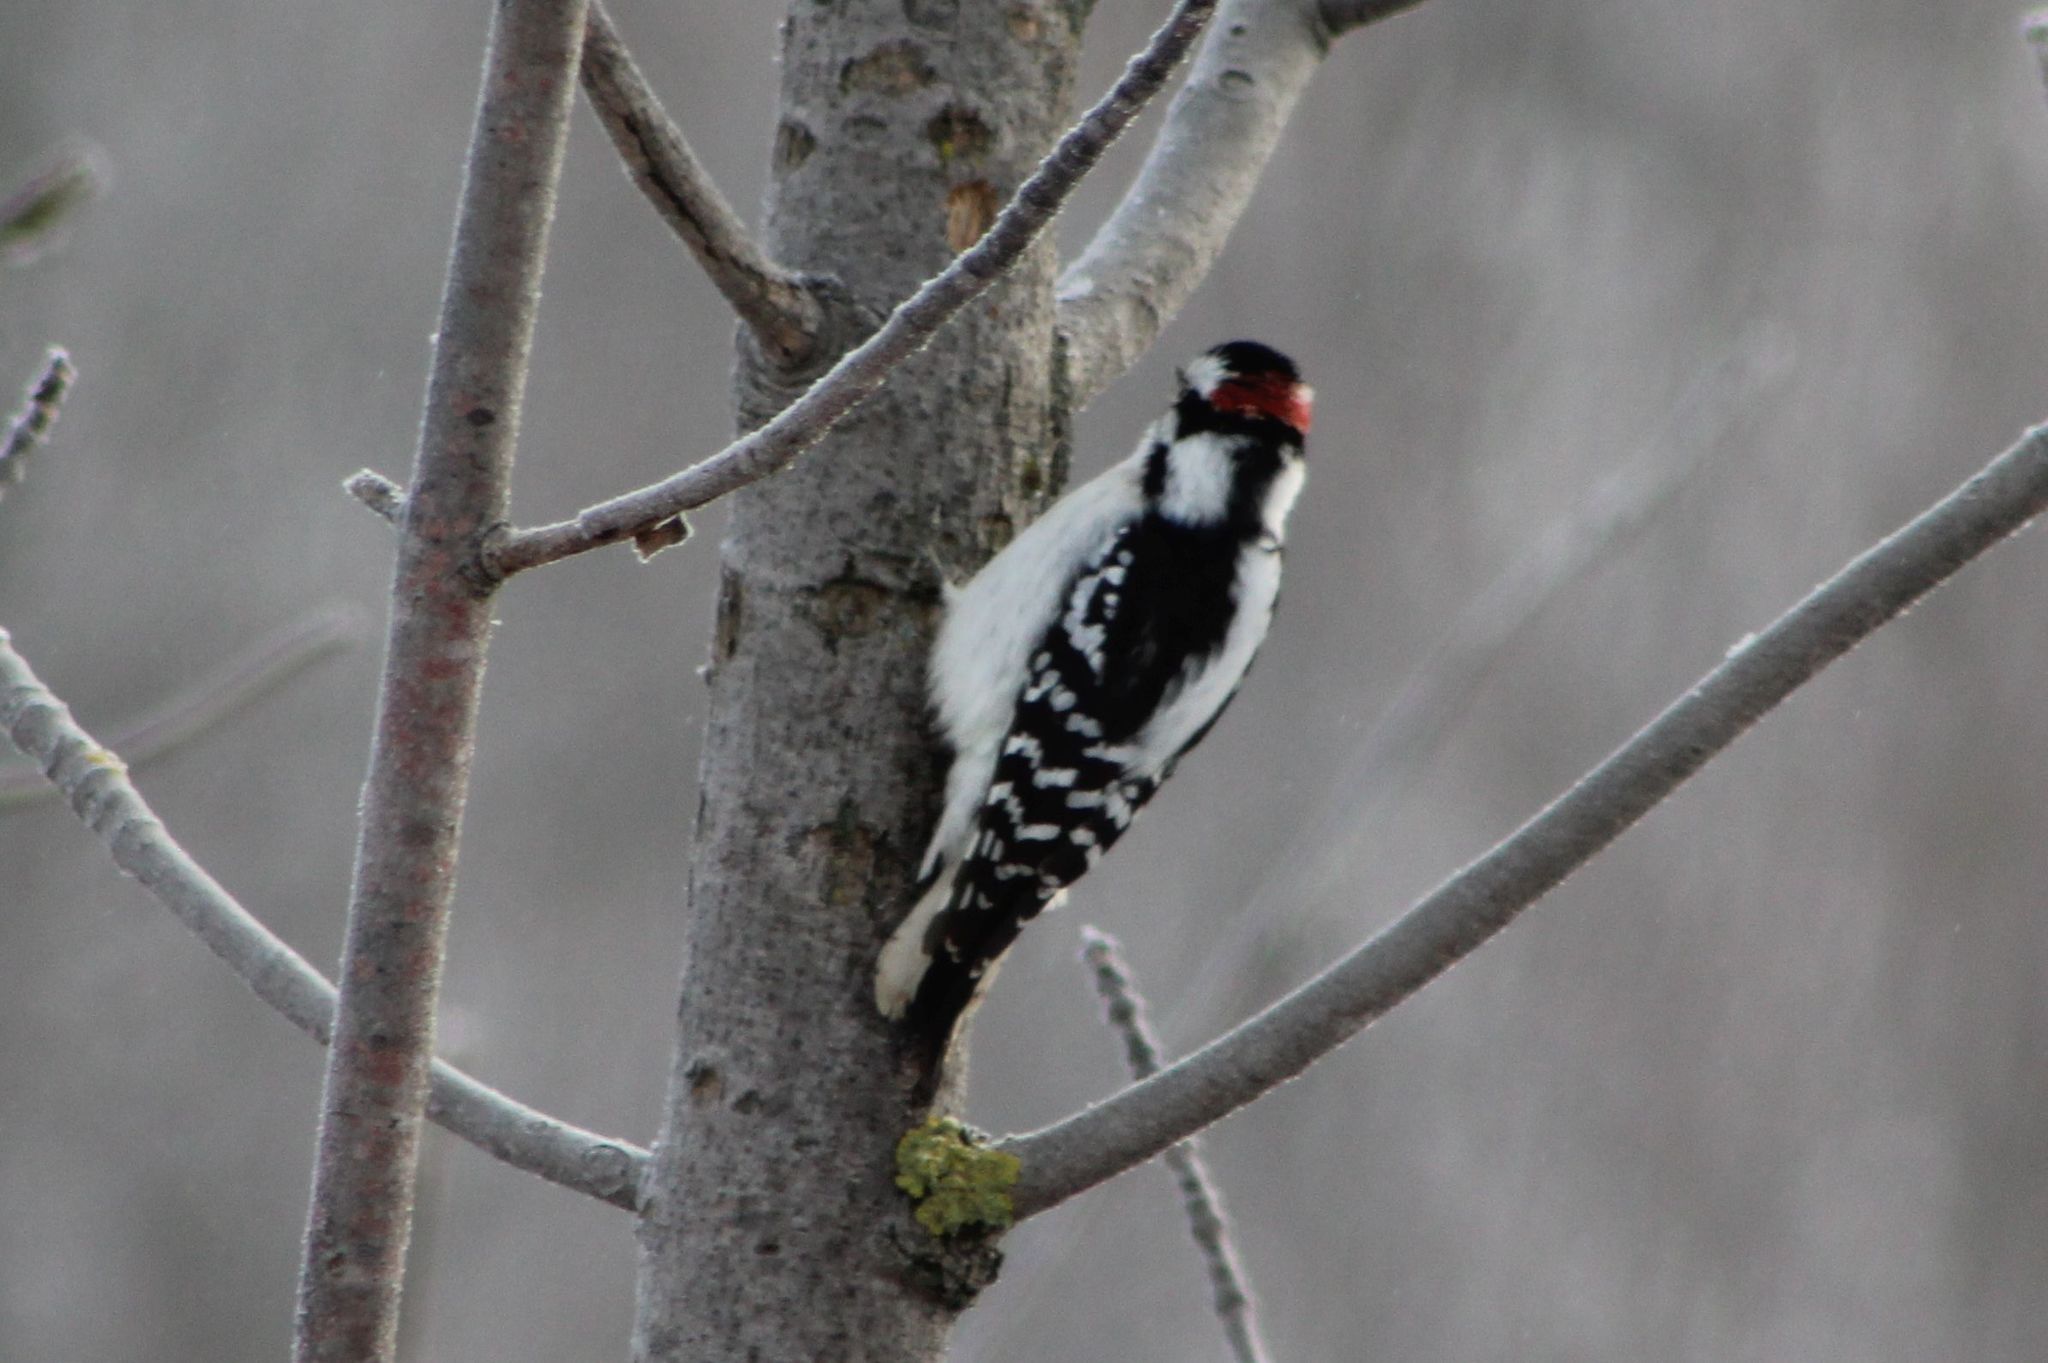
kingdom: Animalia
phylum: Chordata
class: Aves
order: Piciformes
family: Picidae
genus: Dryobates
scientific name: Dryobates pubescens
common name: Downy woodpecker
